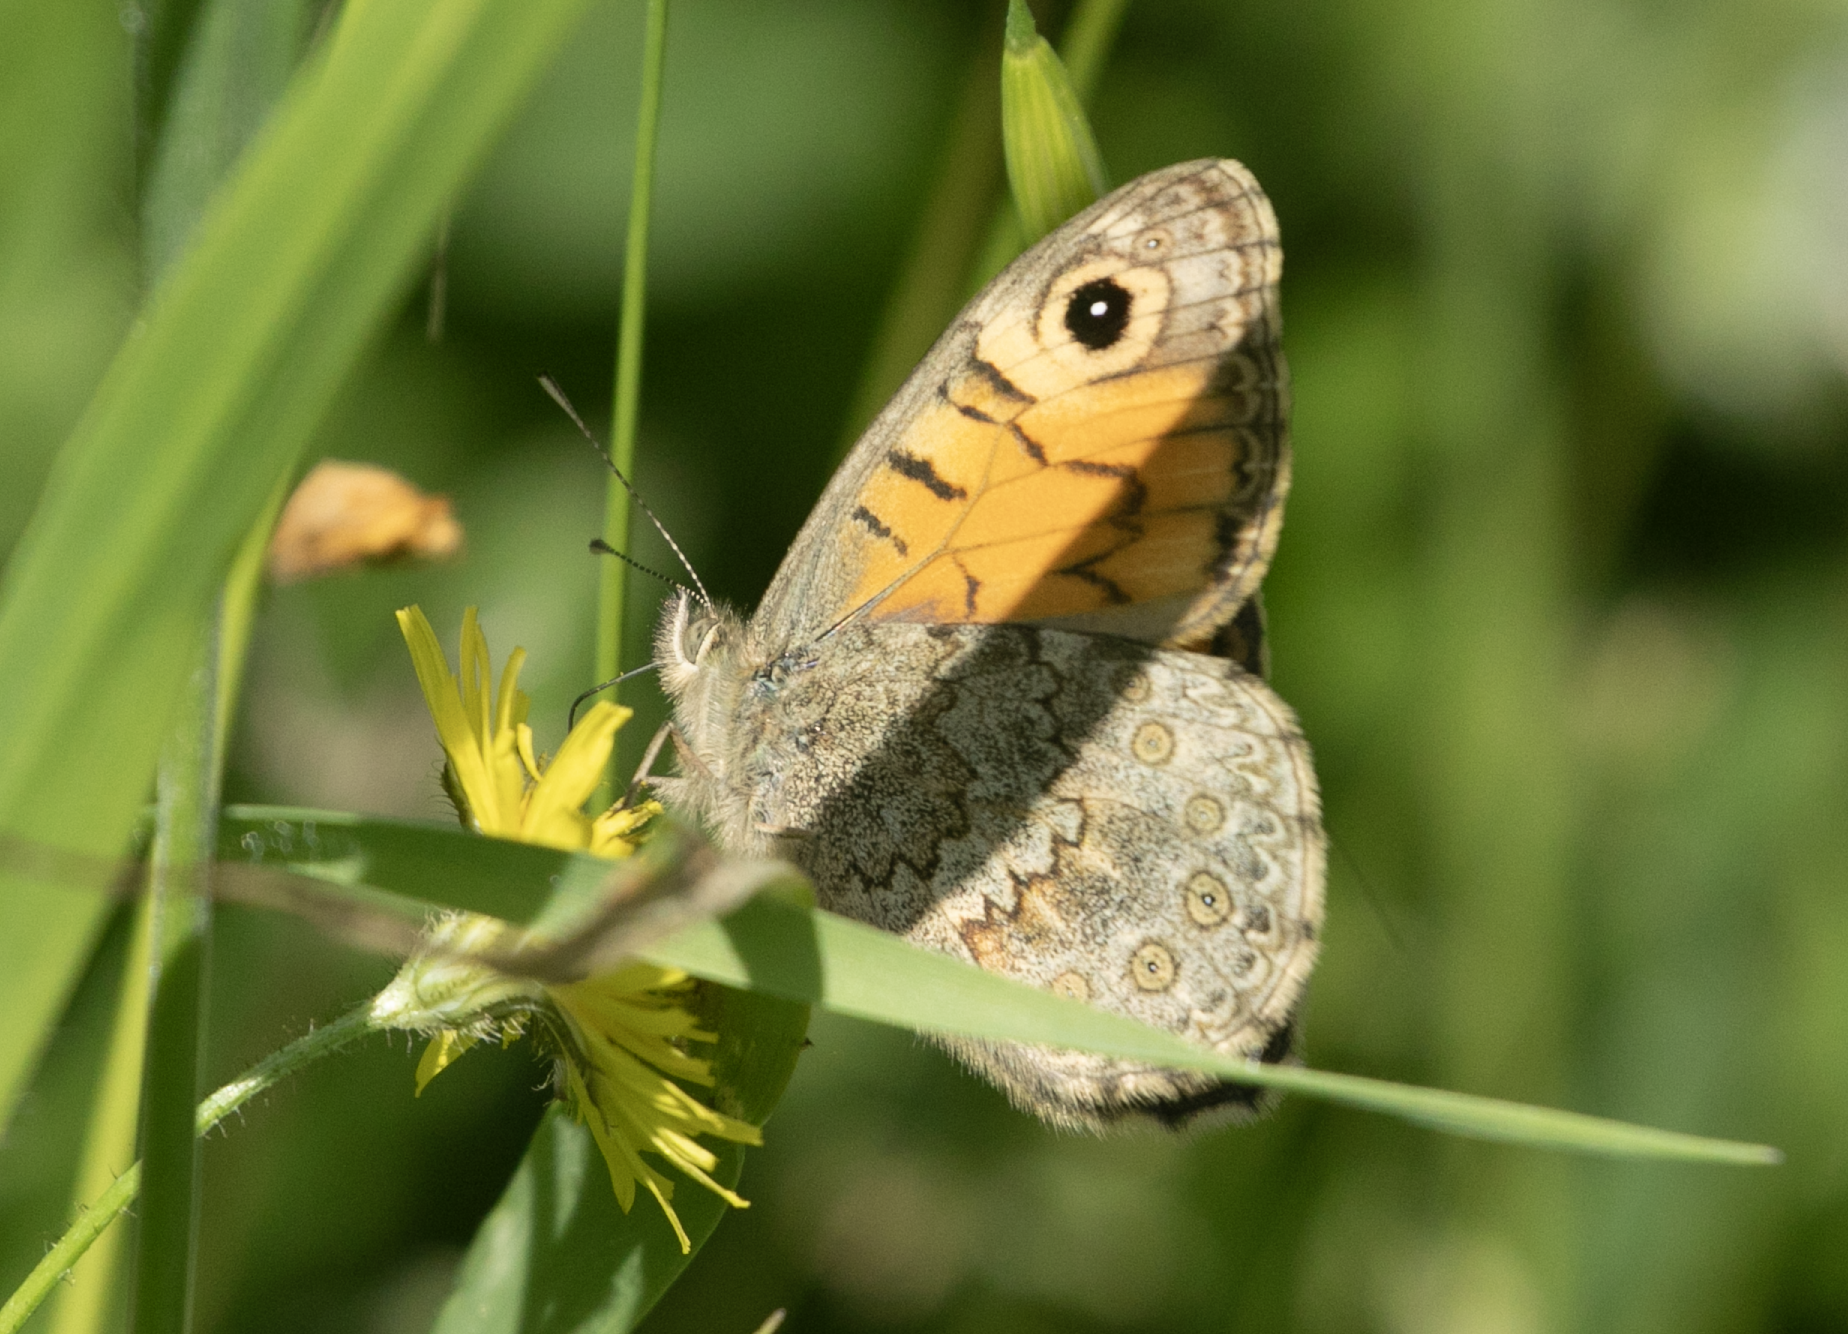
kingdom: Animalia
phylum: Arthropoda
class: Insecta
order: Lepidoptera
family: Nymphalidae
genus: Pararge
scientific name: Pararge Lasiommata megera
